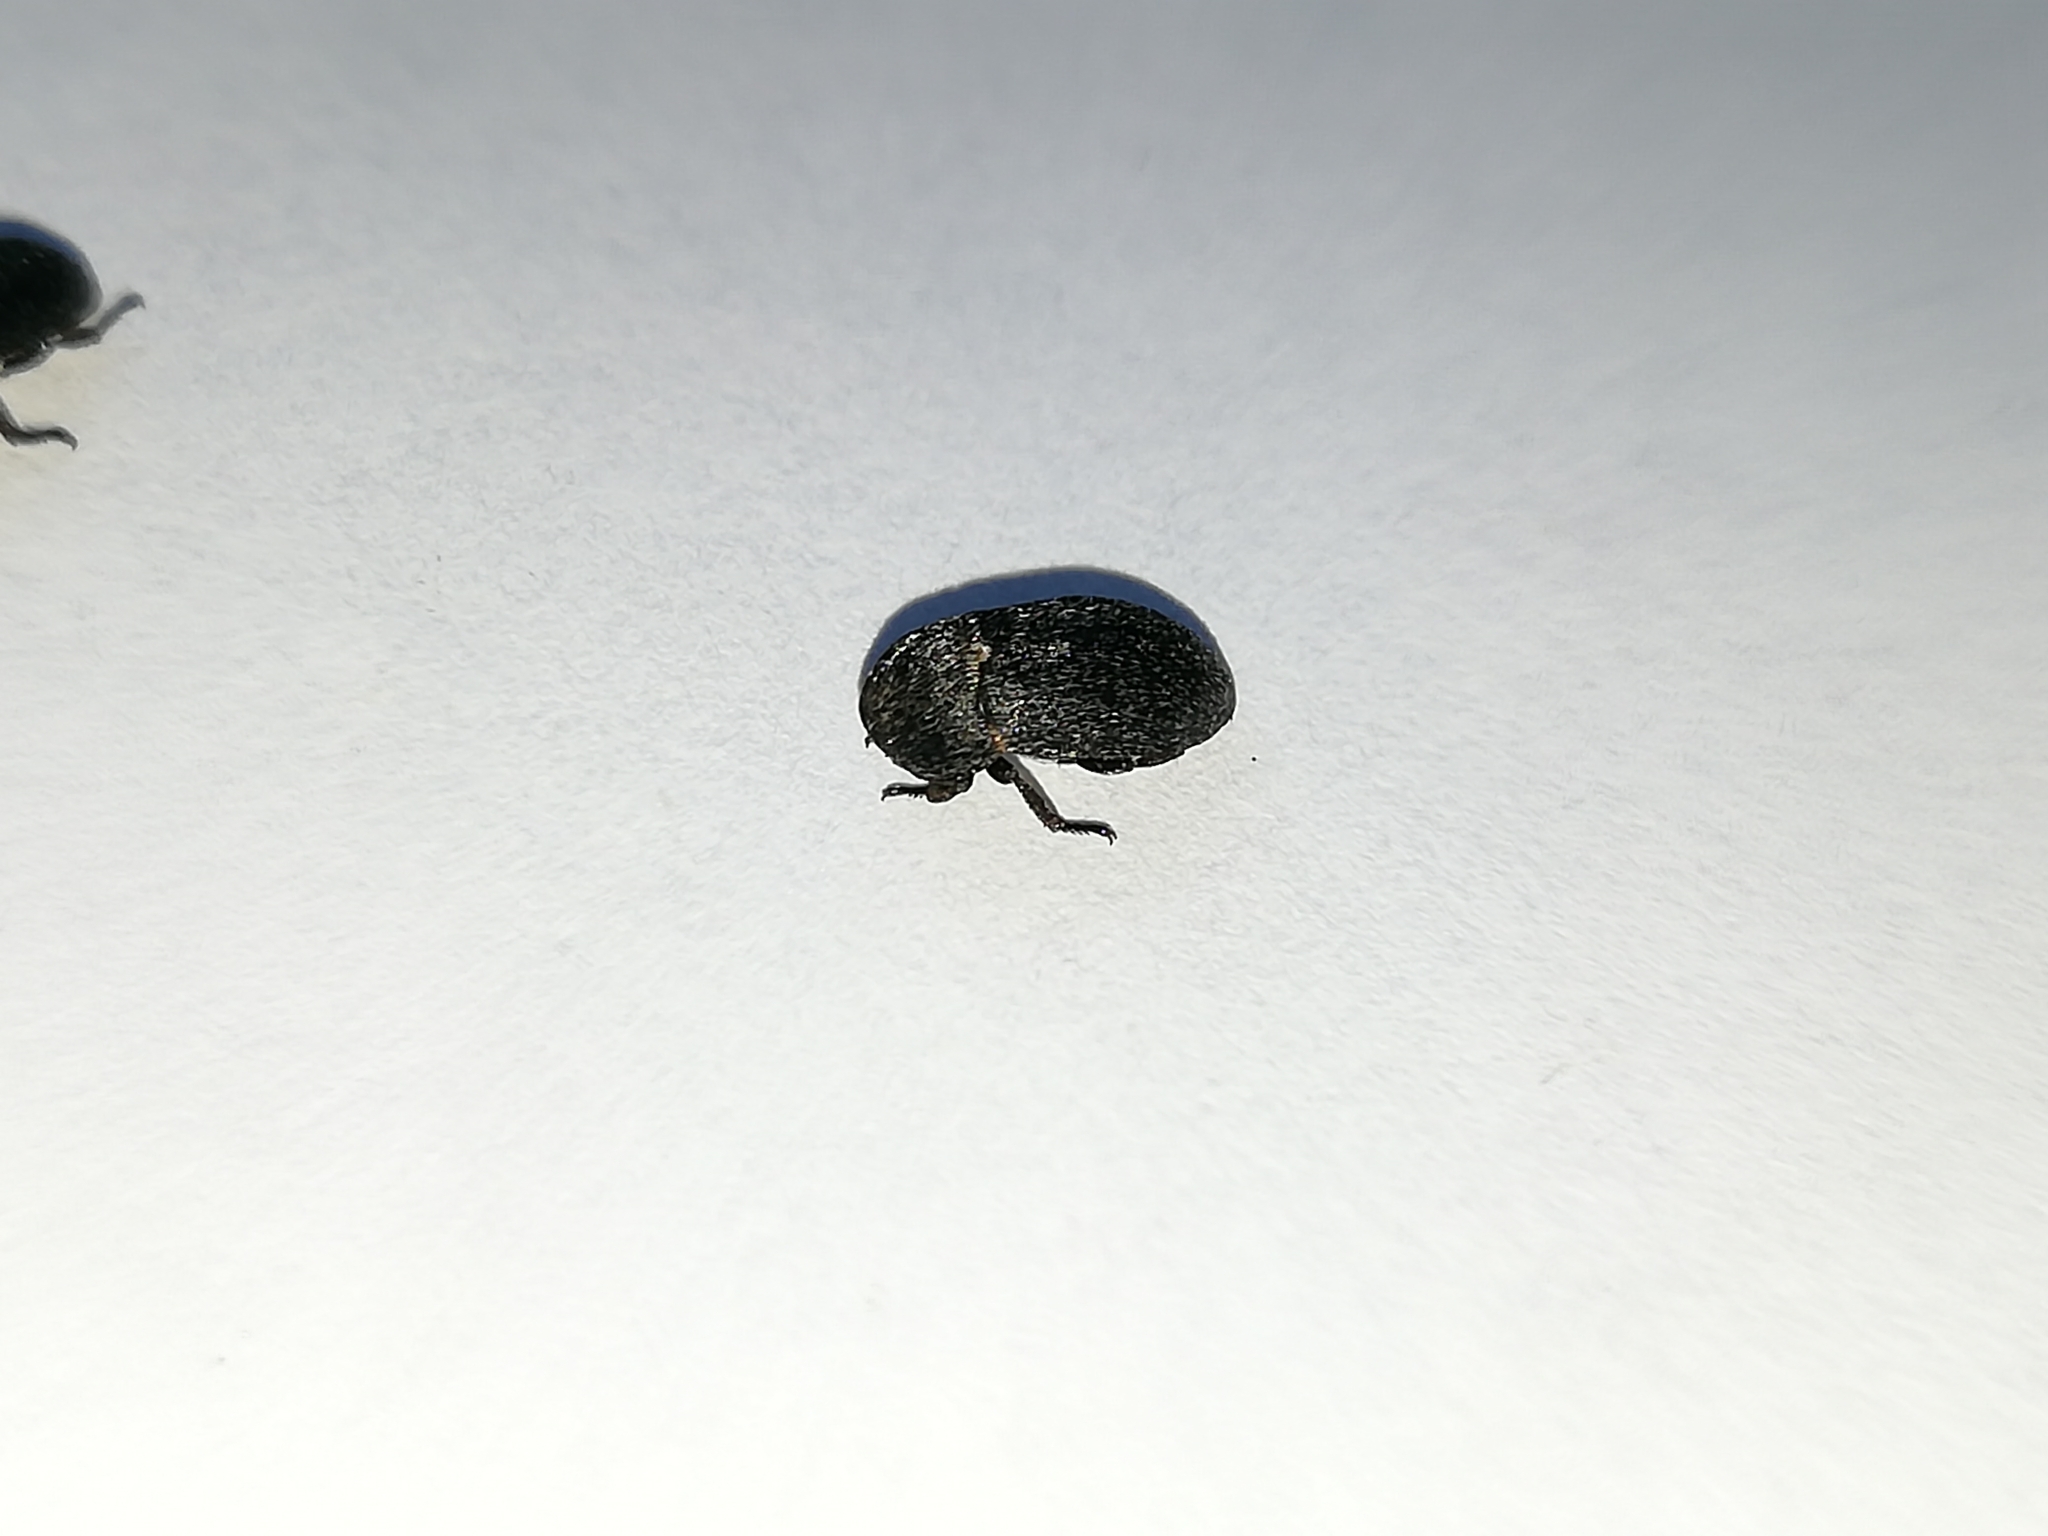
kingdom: Animalia
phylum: Arthropoda
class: Insecta
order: Coleoptera
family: Dermestidae
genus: Dermestes
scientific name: Dermestes laniarius
